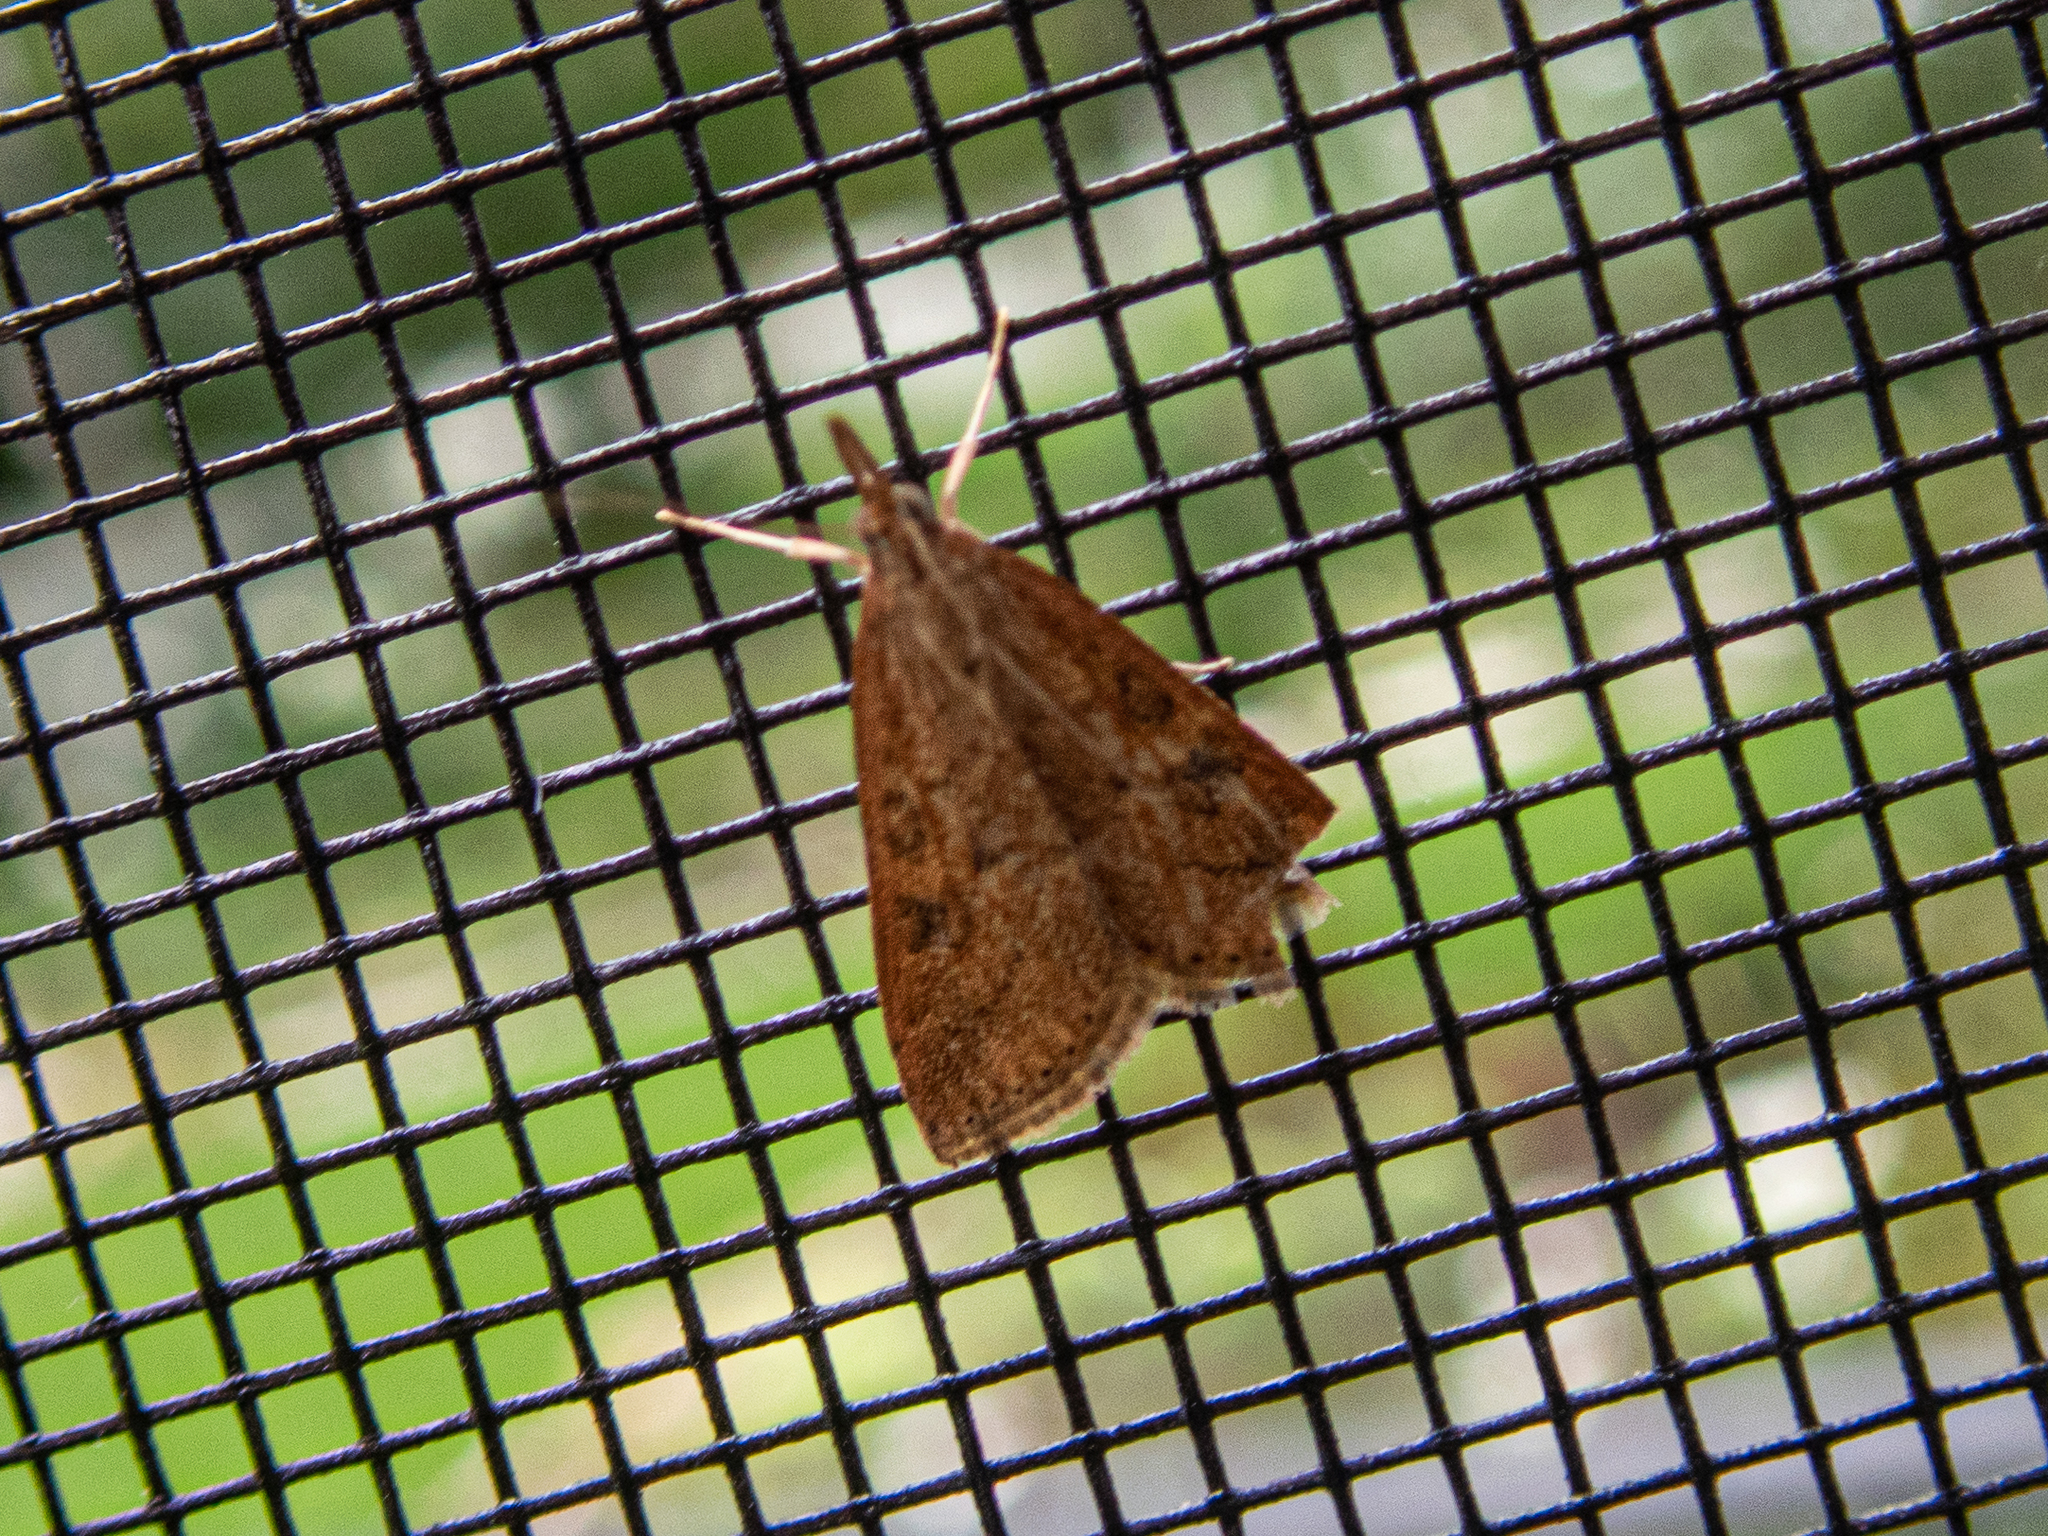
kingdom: Animalia
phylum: Arthropoda
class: Insecta
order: Lepidoptera
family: Crambidae
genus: Udea
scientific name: Udea rubigalis
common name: Celery leaftier moth
